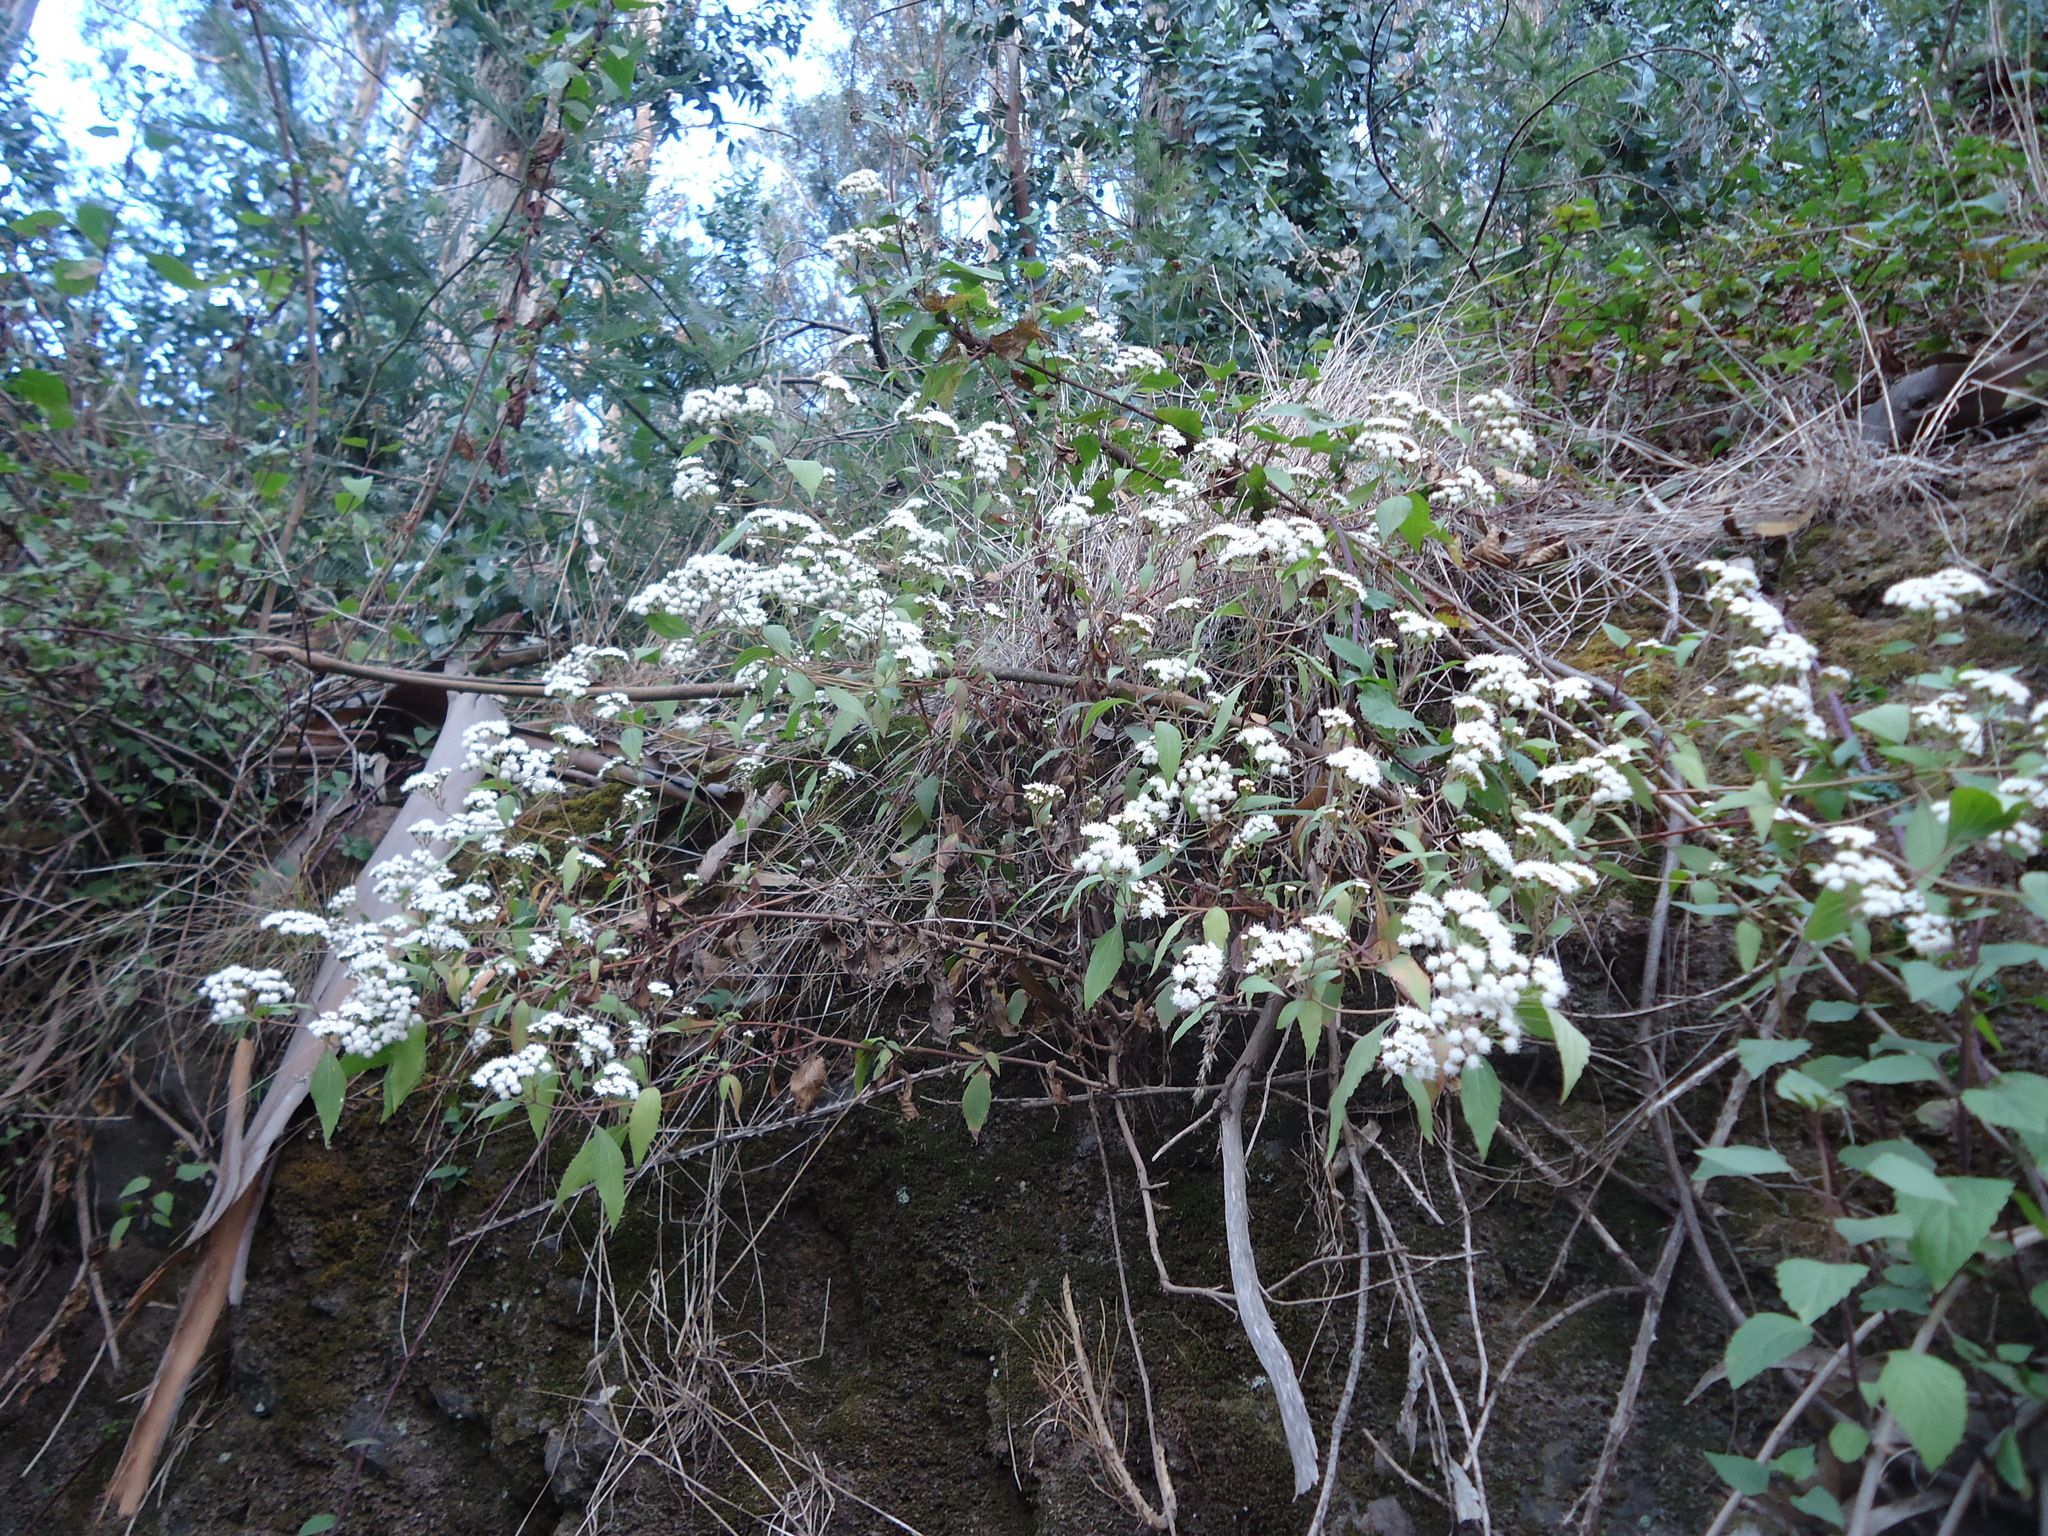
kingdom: Plantae
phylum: Tracheophyta
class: Magnoliopsida
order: Asterales
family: Asteraceae
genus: Ageratina
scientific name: Ageratina adenophora
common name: Sticky snakeroot
